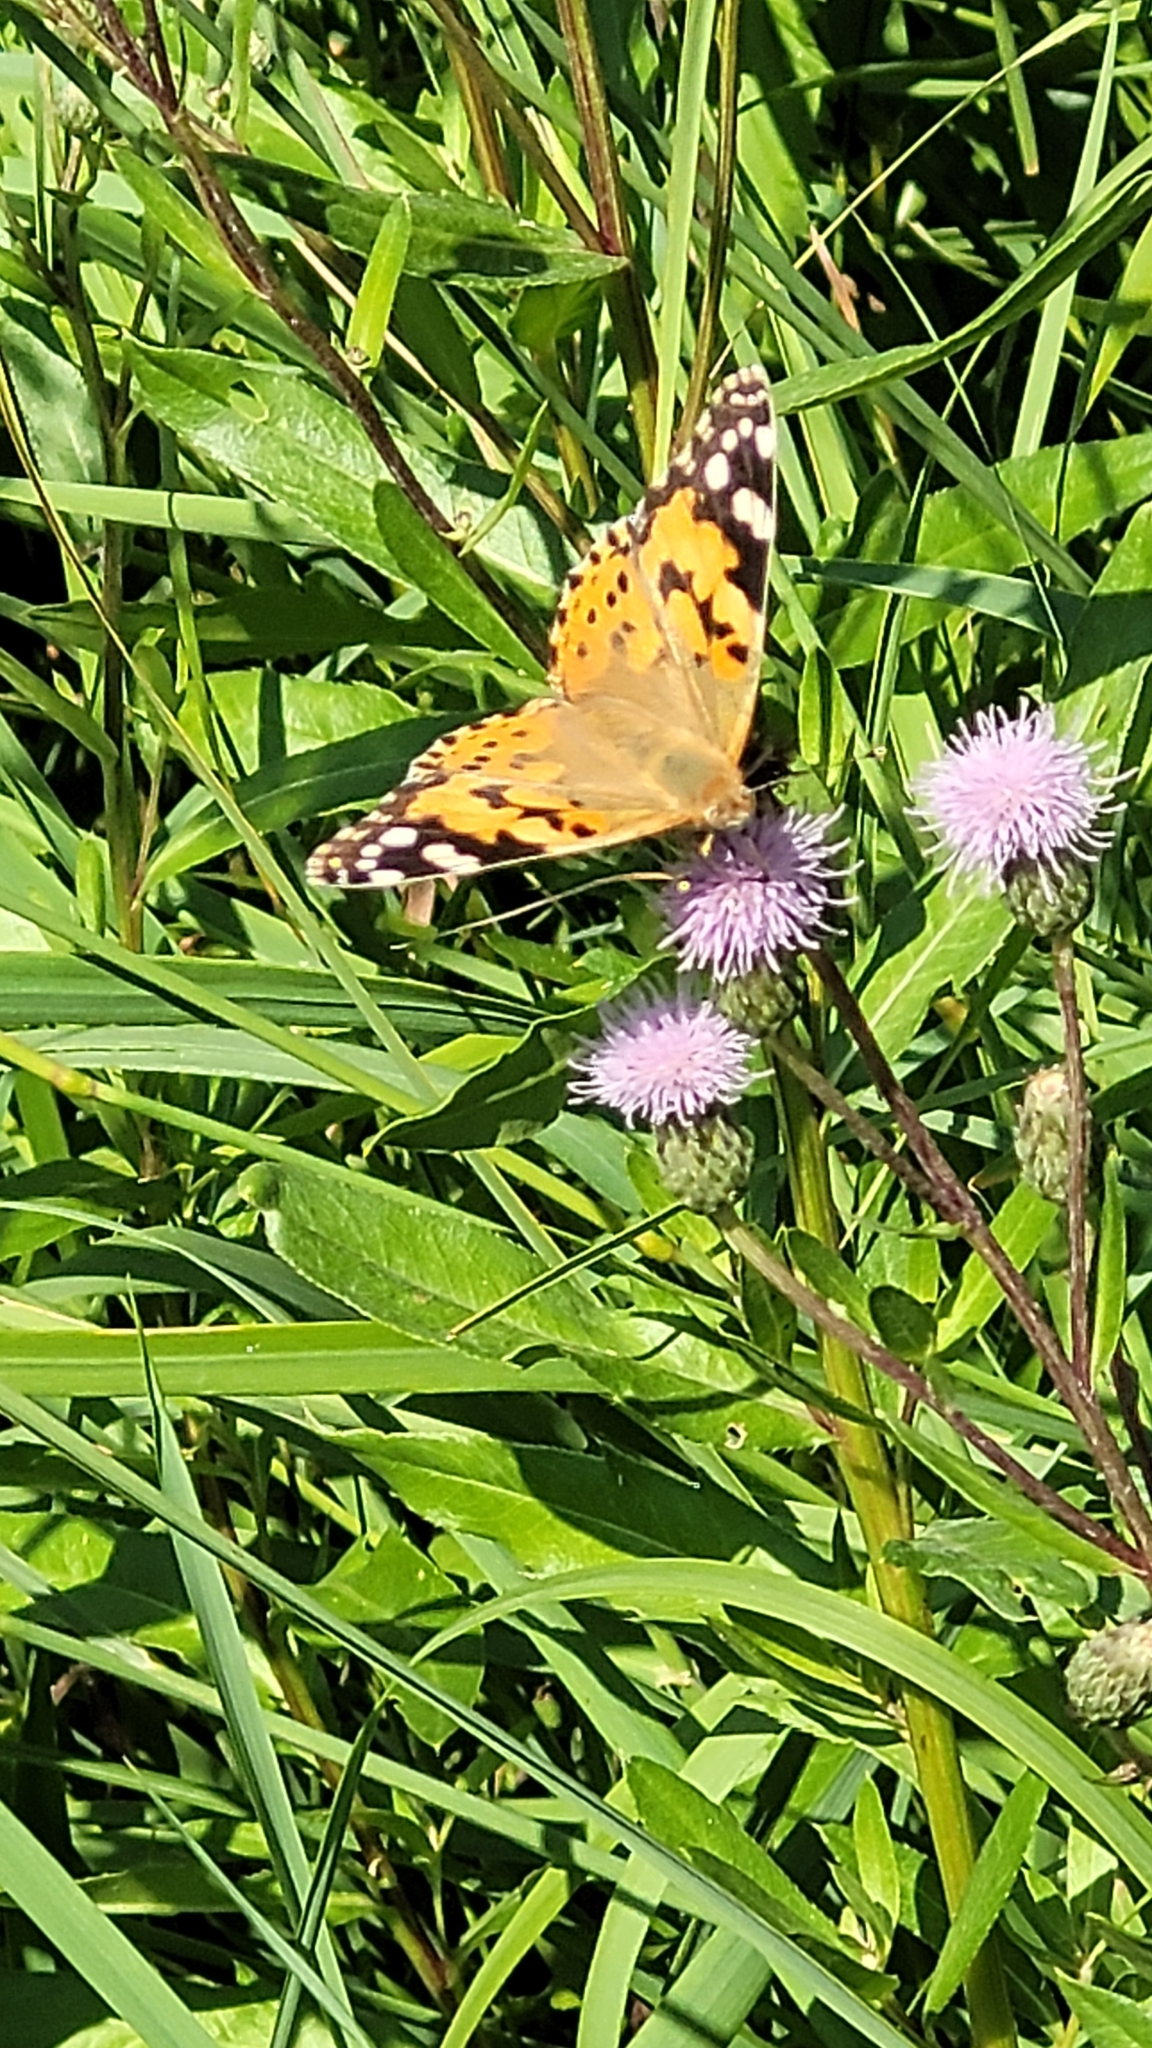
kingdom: Animalia
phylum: Arthropoda
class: Insecta
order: Lepidoptera
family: Nymphalidae
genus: Vanessa
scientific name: Vanessa cardui
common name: Painted lady
